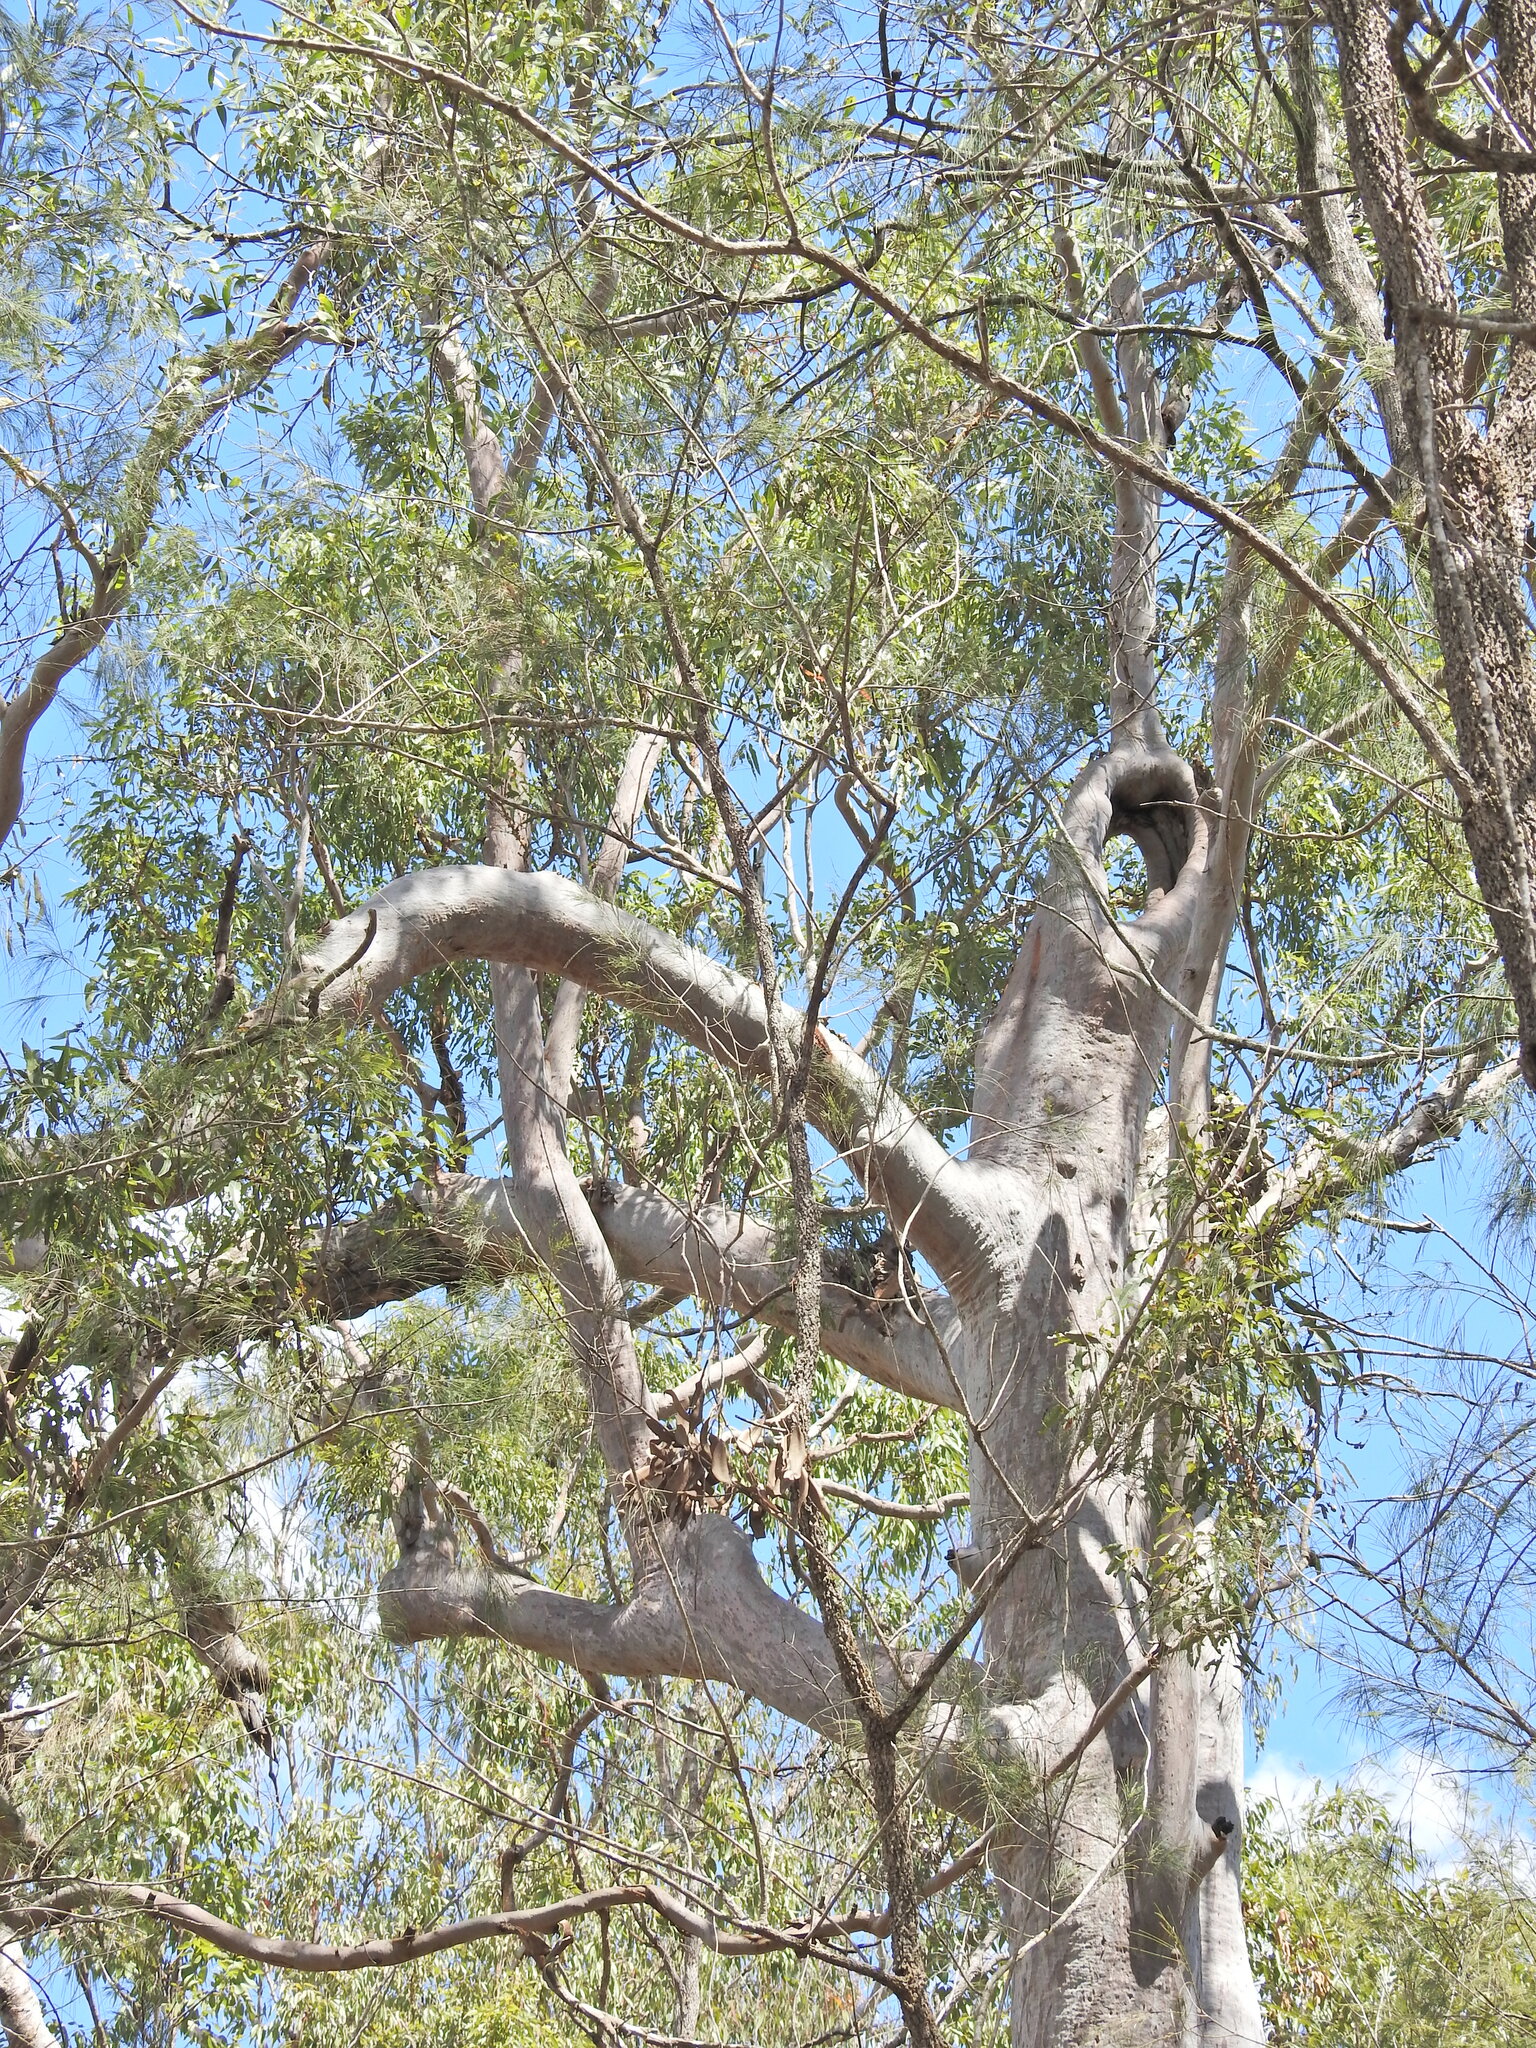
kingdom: Plantae
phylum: Tracheophyta
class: Magnoliopsida
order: Myrtales
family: Myrtaceae
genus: Angophora
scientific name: Angophora leiocarpa
